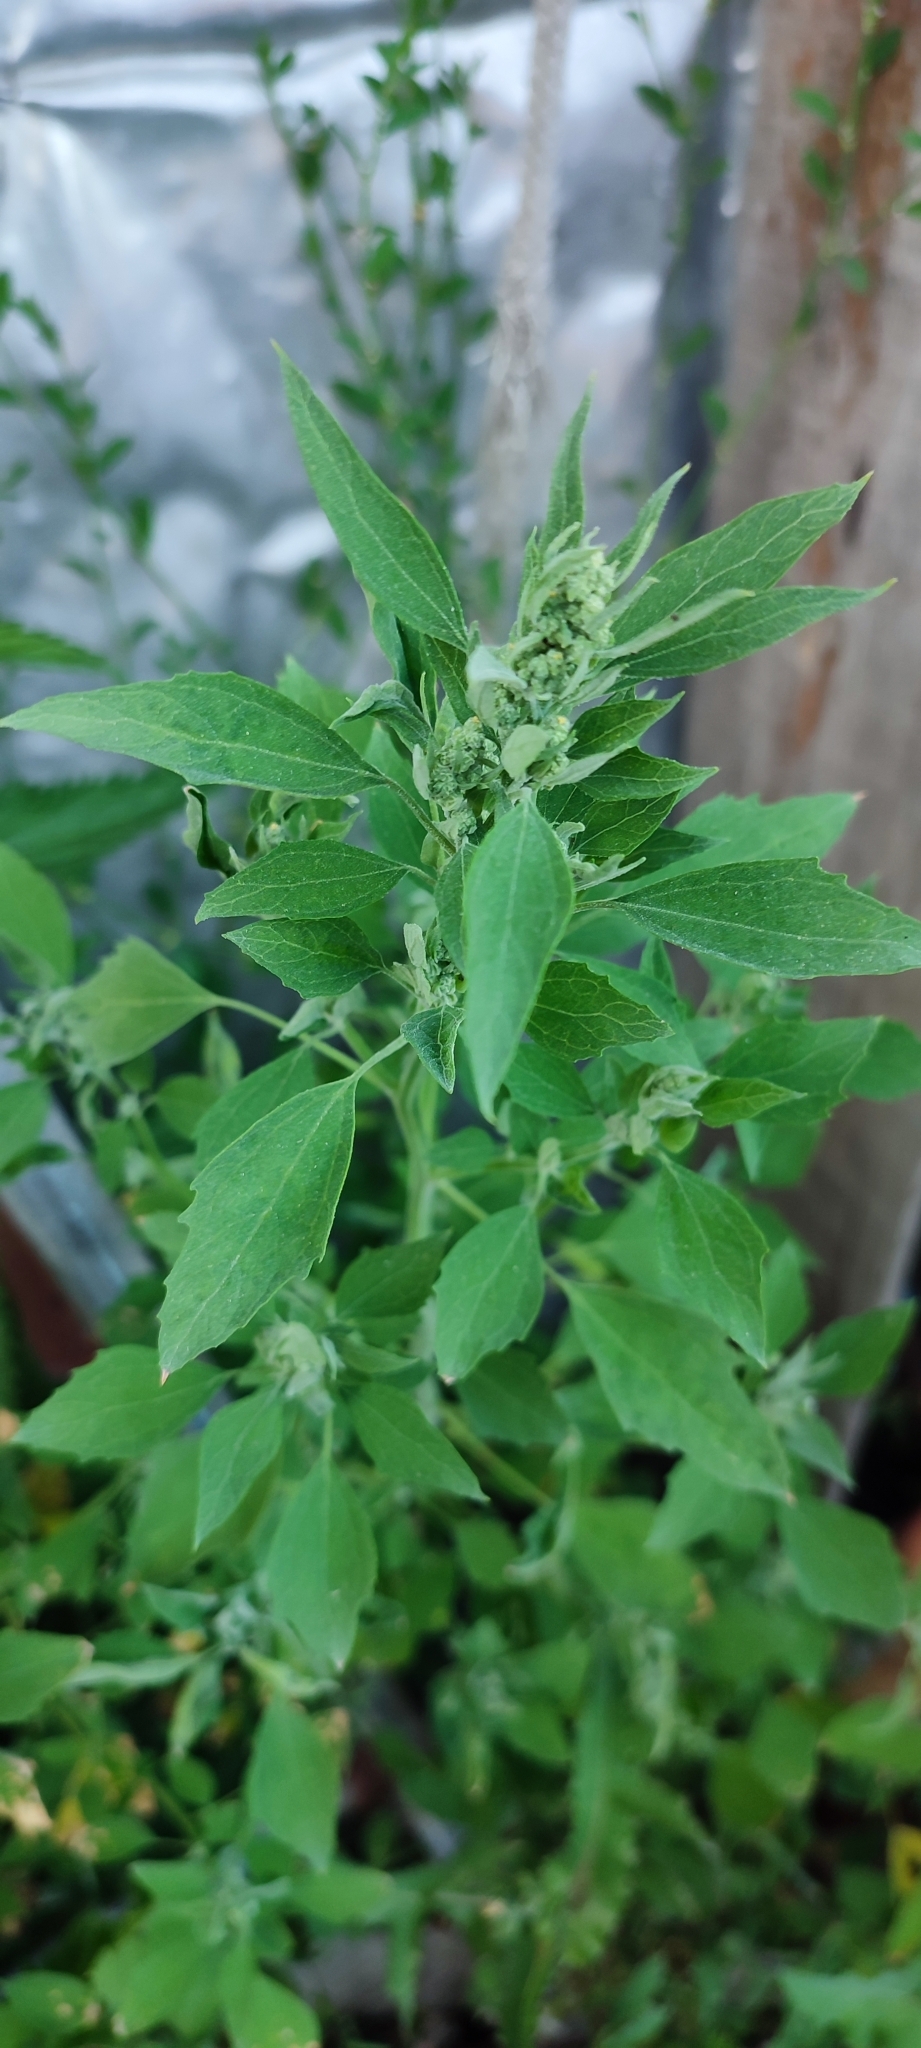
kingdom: Plantae
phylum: Tracheophyta
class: Magnoliopsida
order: Caryophyllales
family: Amaranthaceae
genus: Chenopodium
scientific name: Chenopodium album
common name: Fat-hen
